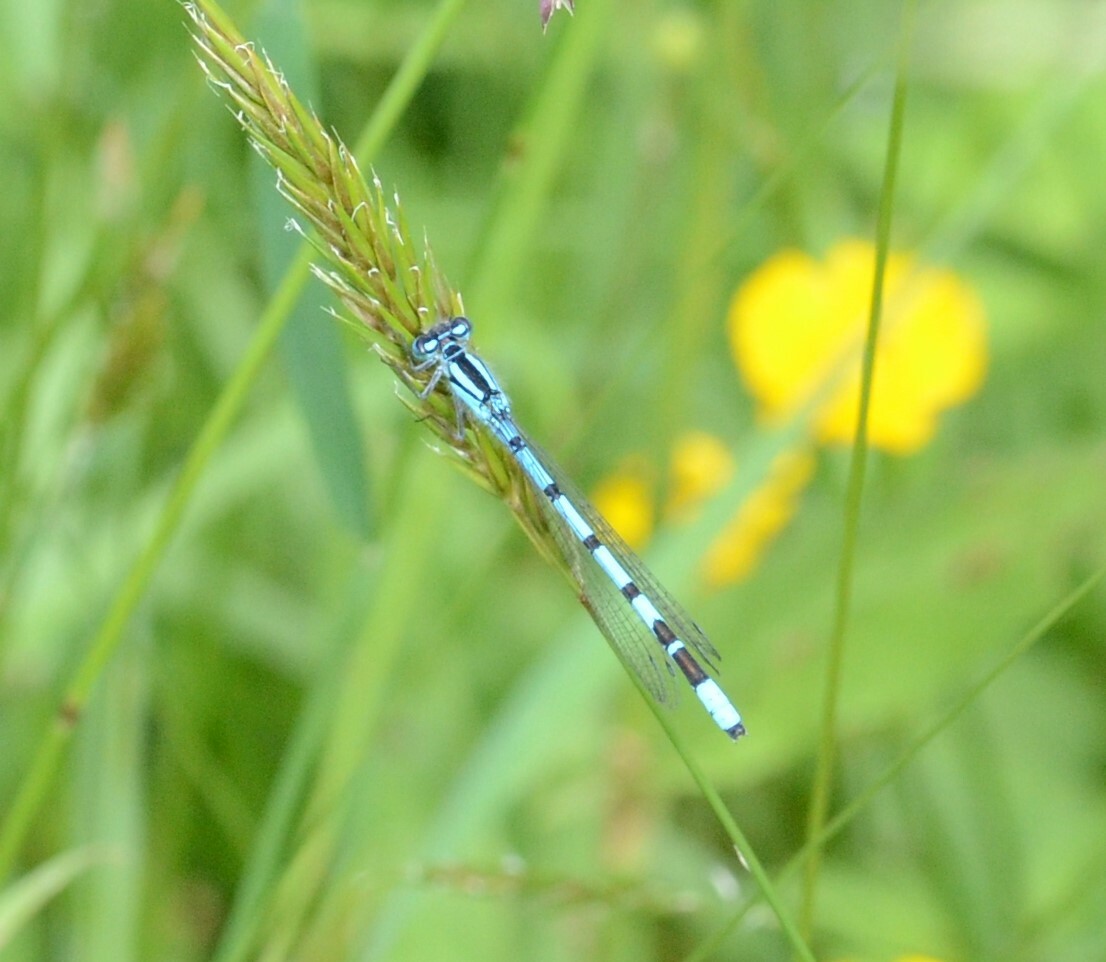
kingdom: Animalia
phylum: Arthropoda
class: Insecta
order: Odonata
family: Coenagrionidae
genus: Enallagma
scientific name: Enallagma cyathigerum
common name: Common blue damselfly
